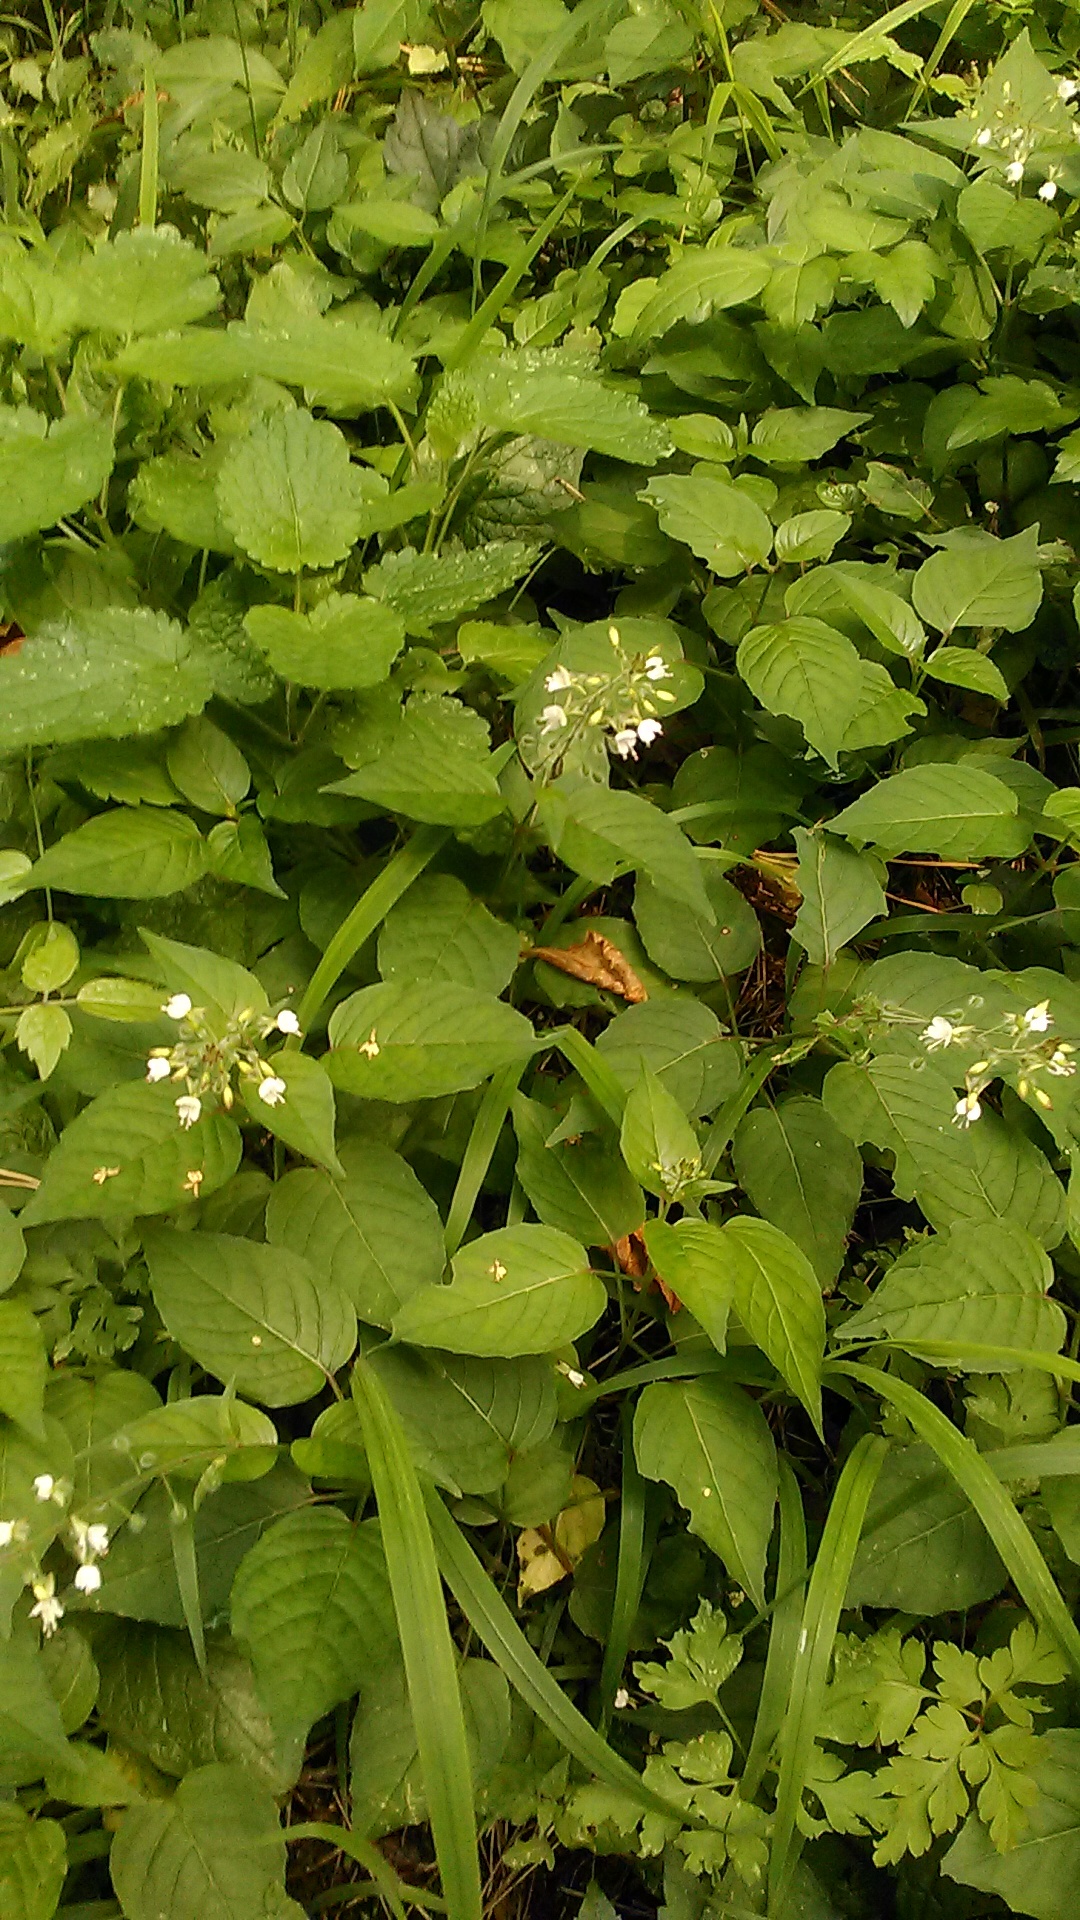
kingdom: Plantae
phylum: Tracheophyta
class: Magnoliopsida
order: Myrtales
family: Onagraceae
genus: Circaea
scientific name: Circaea lutetiana
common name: Enchanter's-nightshade
